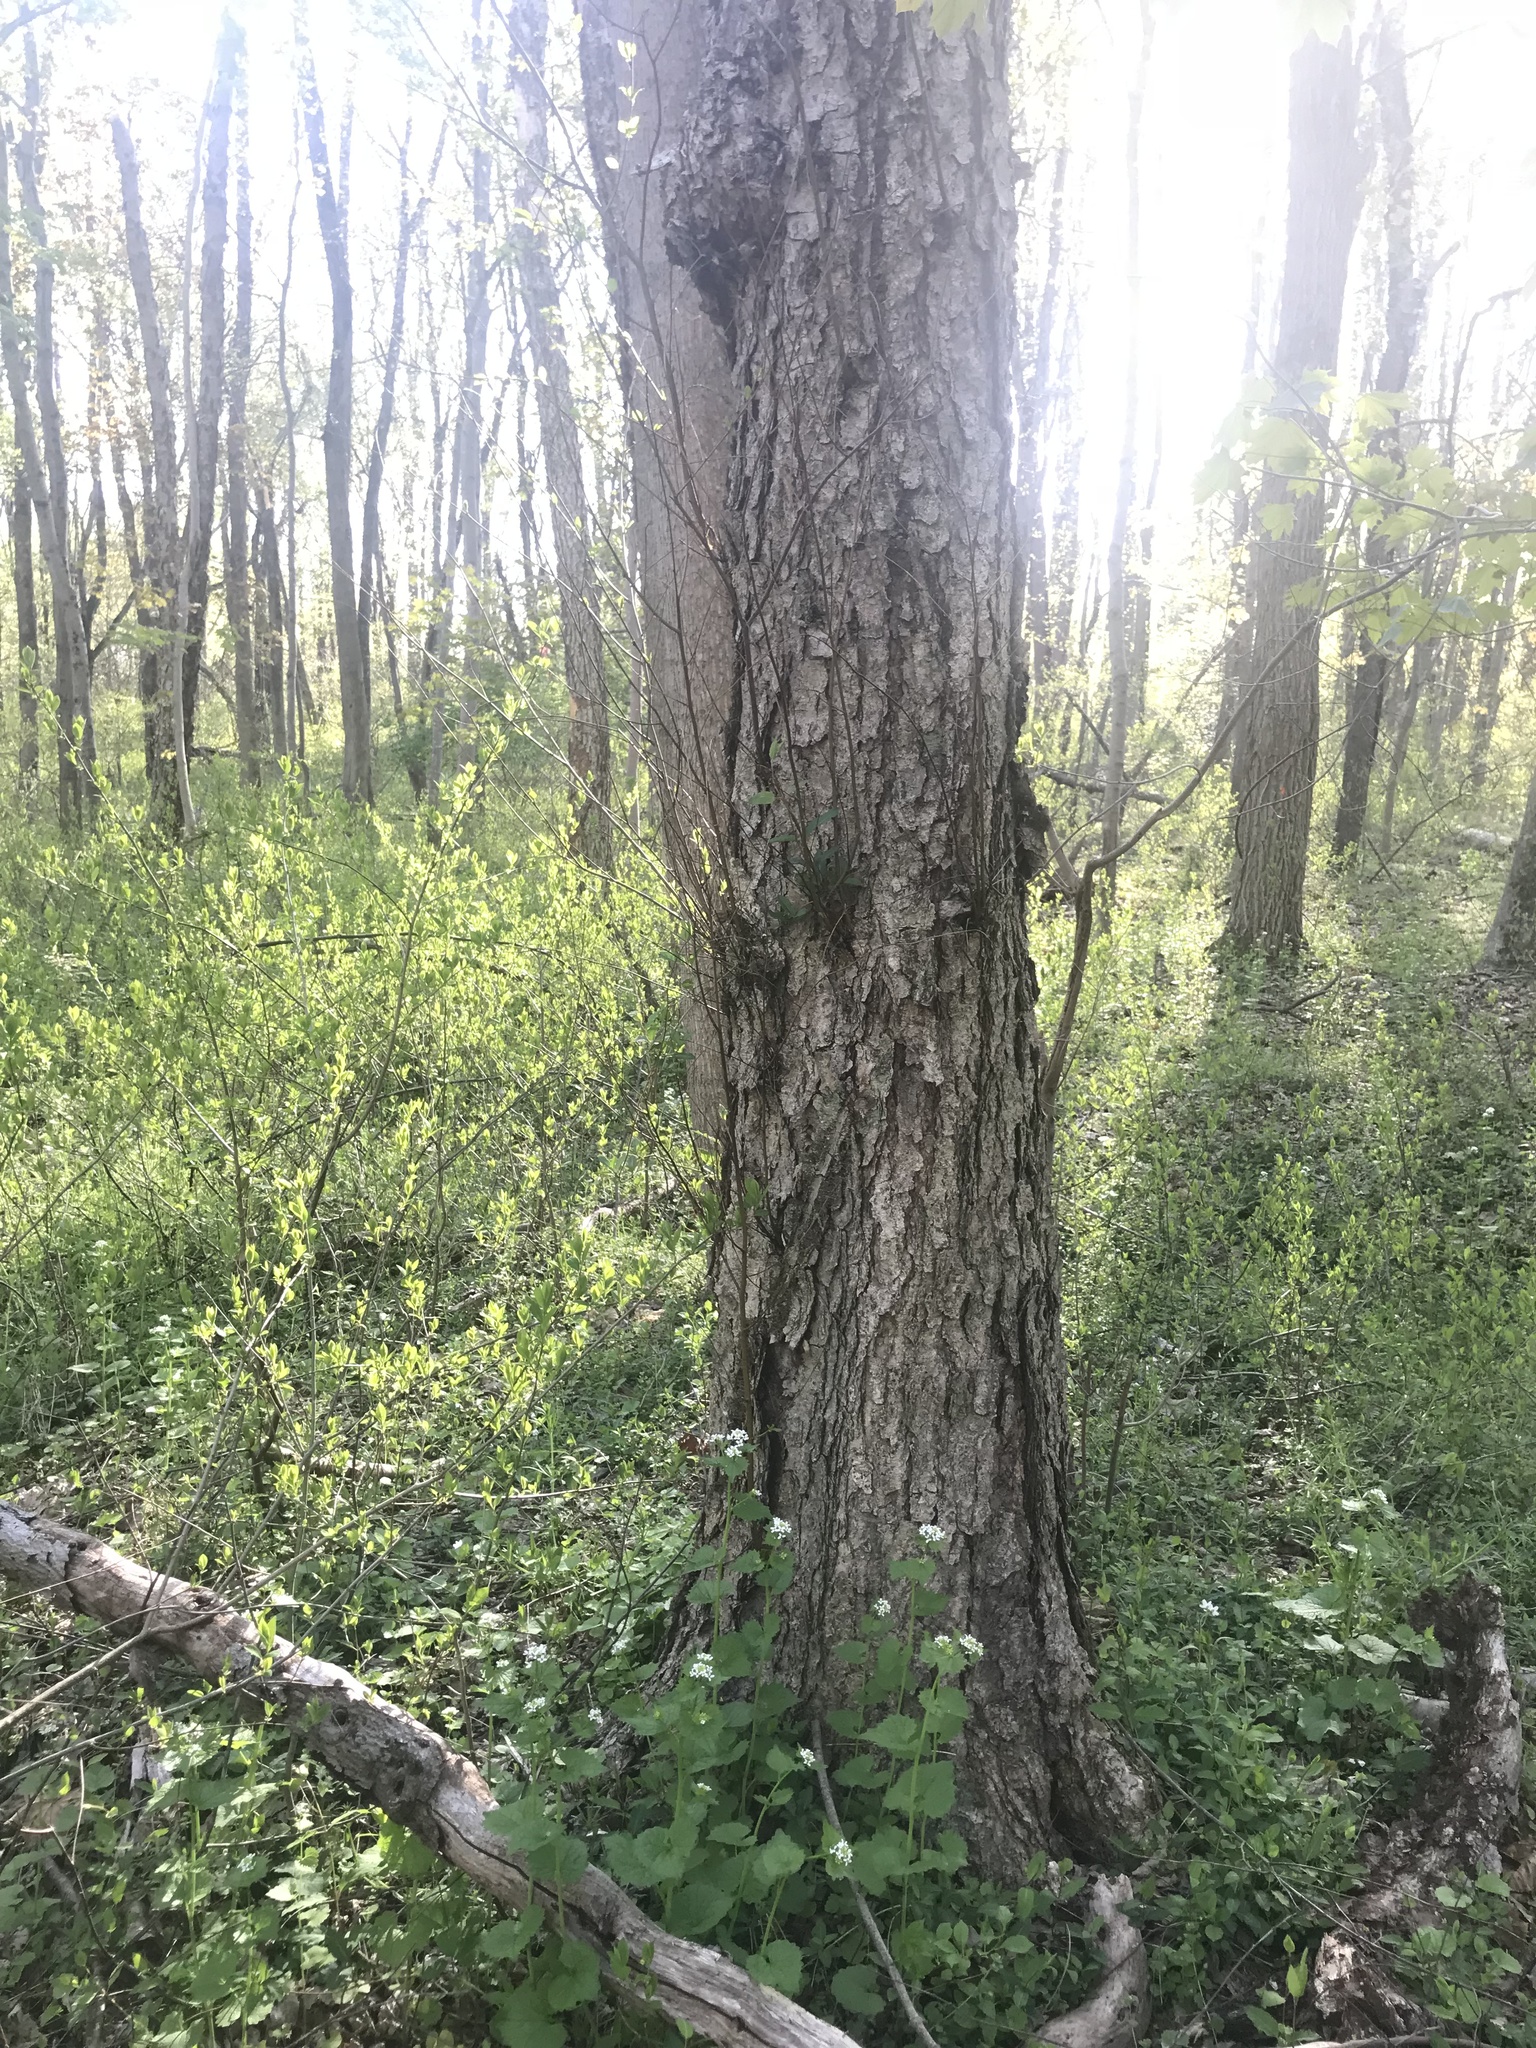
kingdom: Plantae
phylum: Tracheophyta
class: Magnoliopsida
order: Fagales
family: Betulaceae
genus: Betula
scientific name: Betula nigra
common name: Black birch
